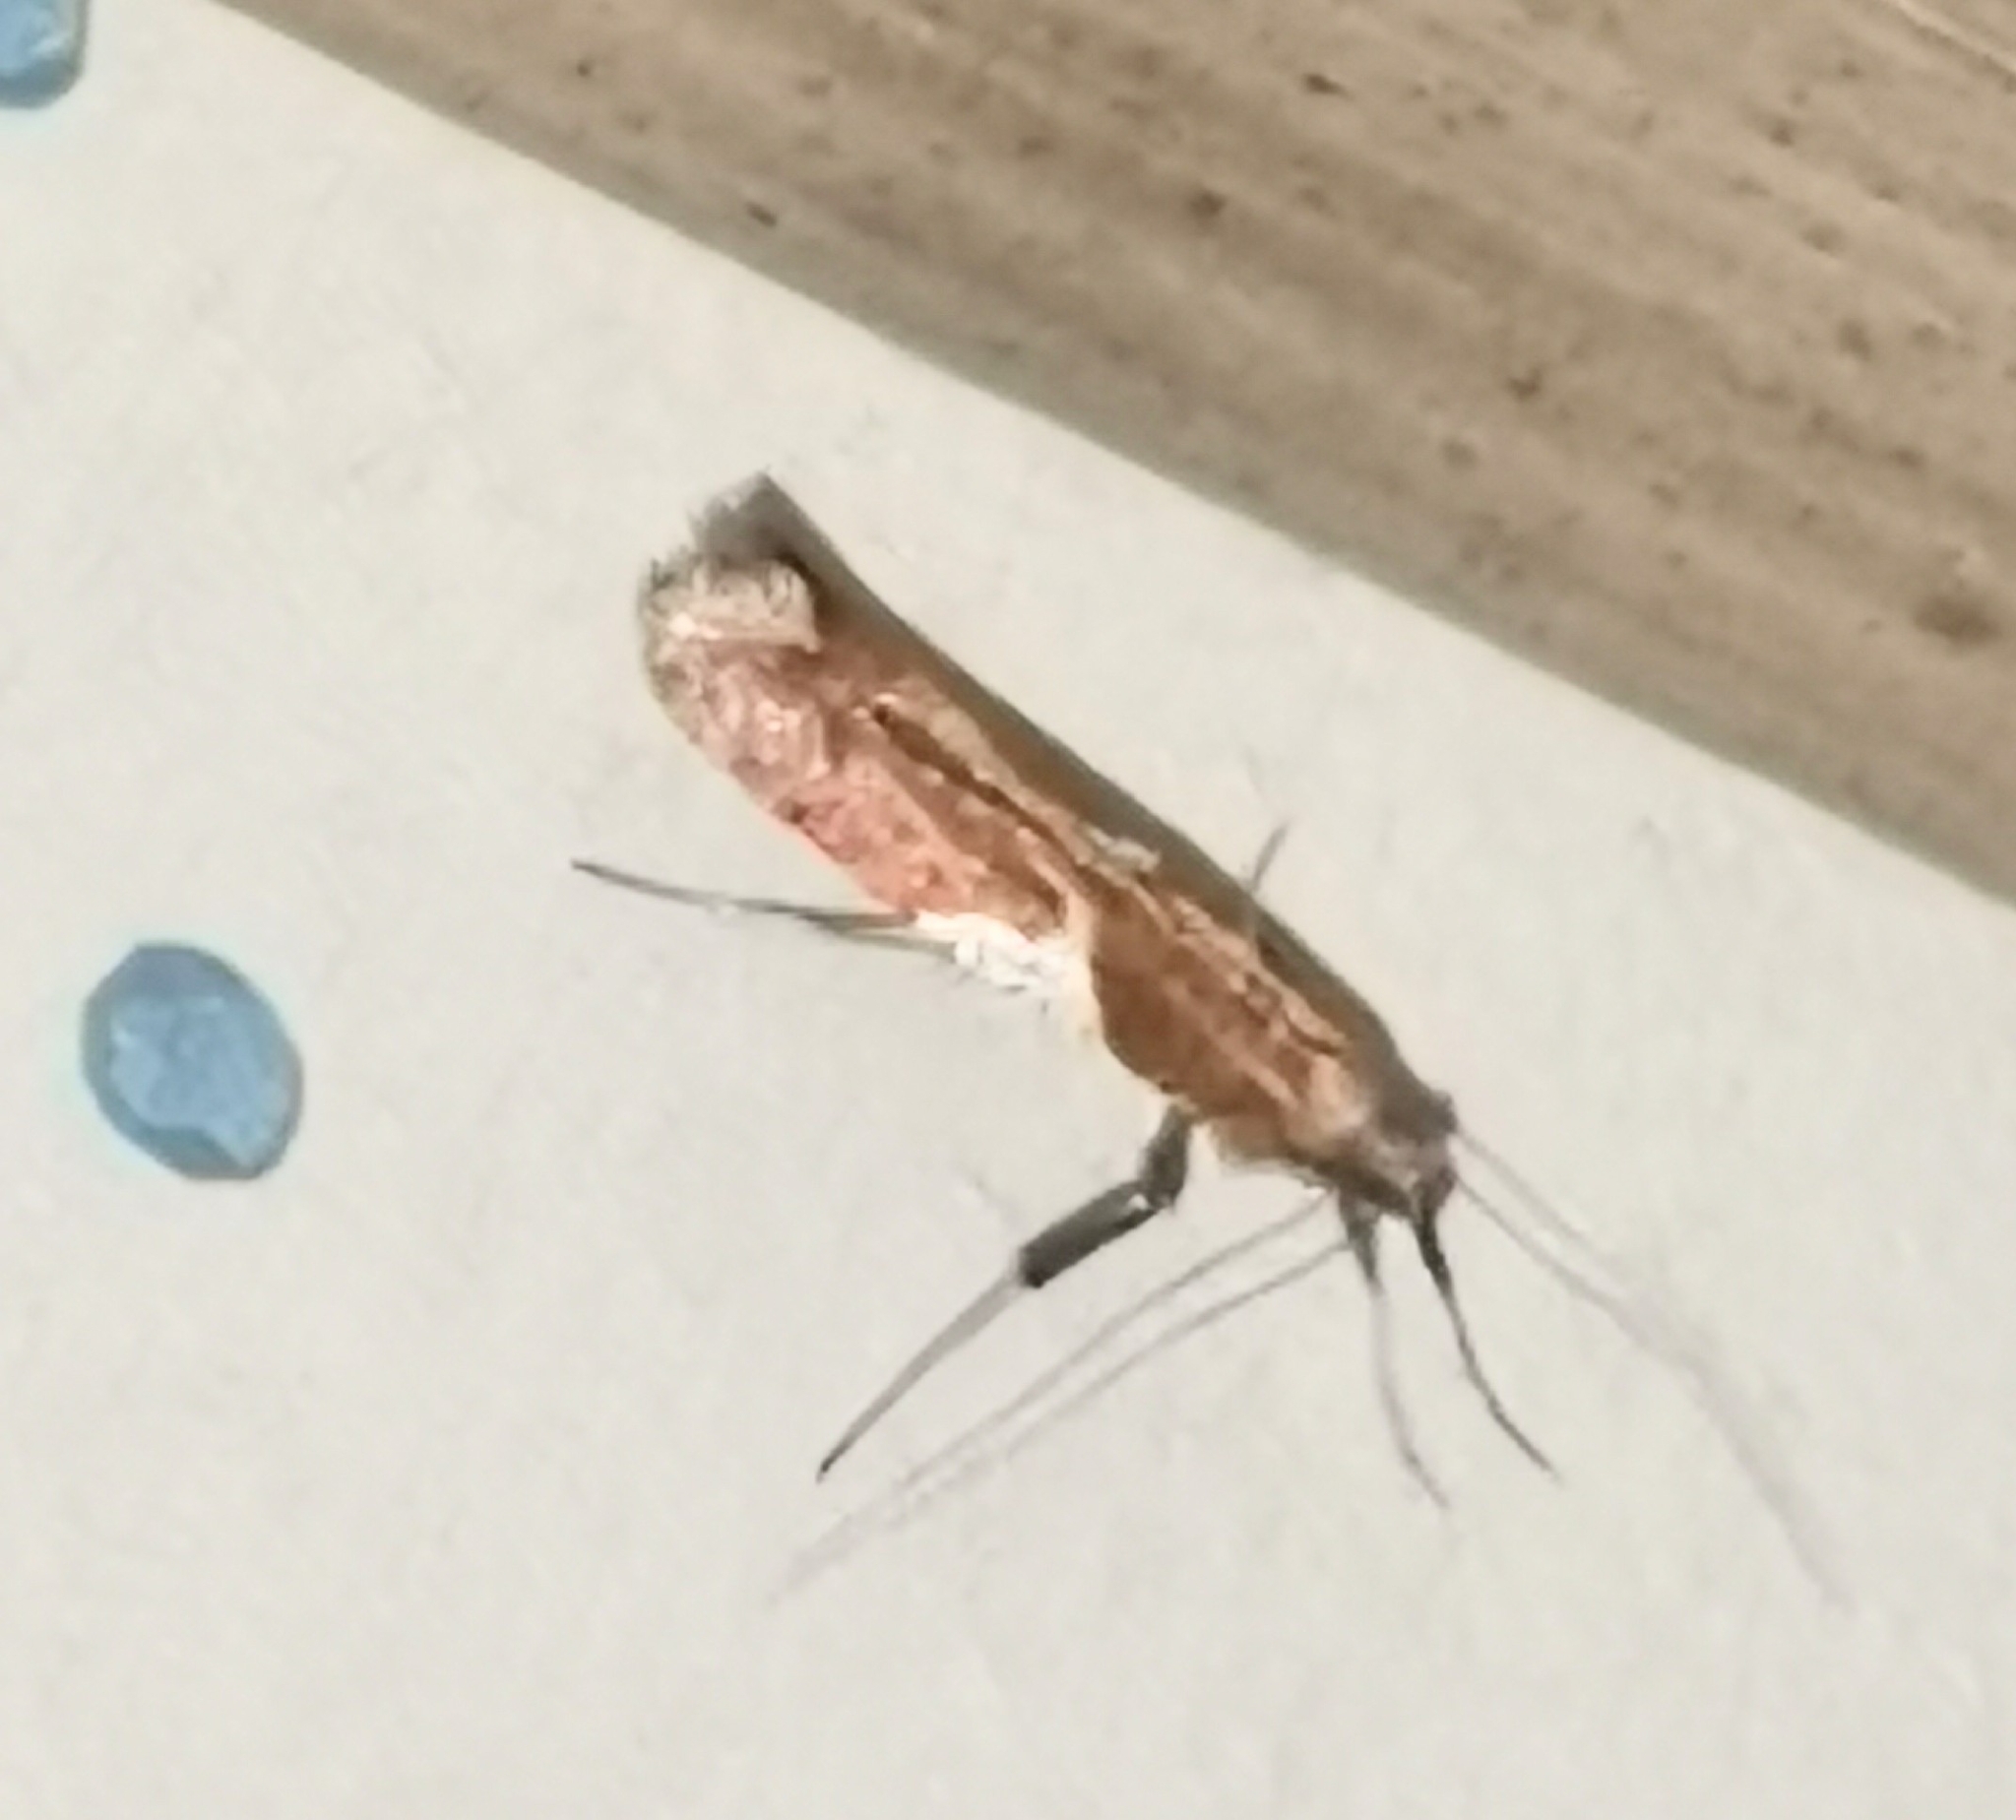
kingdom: Animalia
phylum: Arthropoda
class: Insecta
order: Lepidoptera
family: Gracillariidae
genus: Caloptilia
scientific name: Caloptilia stigmatella
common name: White-triangle slender
